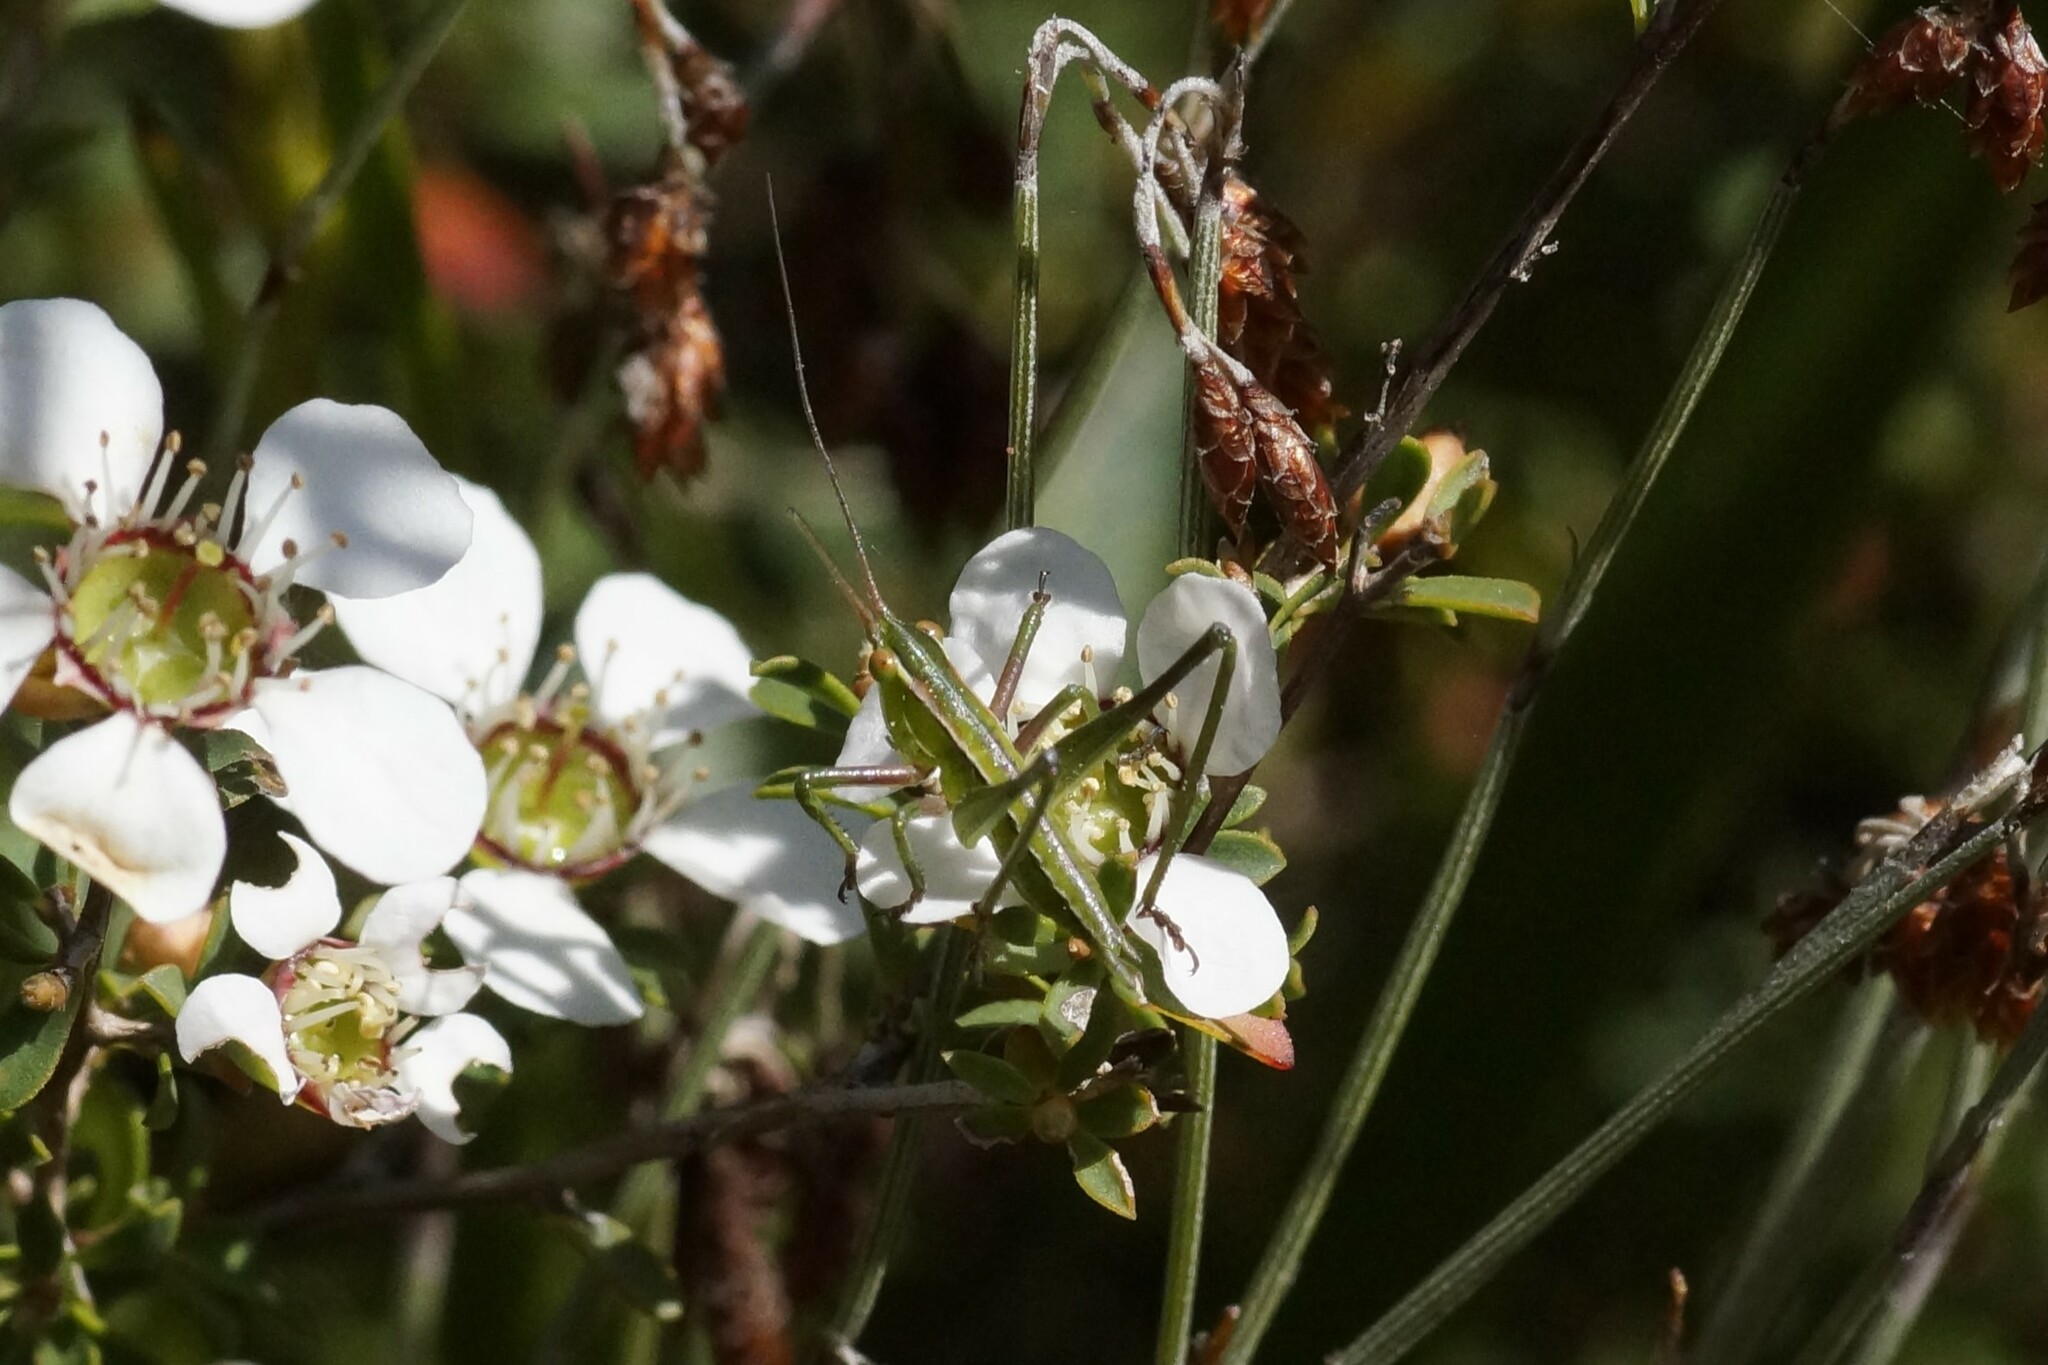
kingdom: Animalia
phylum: Arthropoda
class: Insecta
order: Orthoptera
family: Tettigoniidae
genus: Metaballus
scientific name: Metaballus sagaeformis
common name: Adelaide marauding katydid
